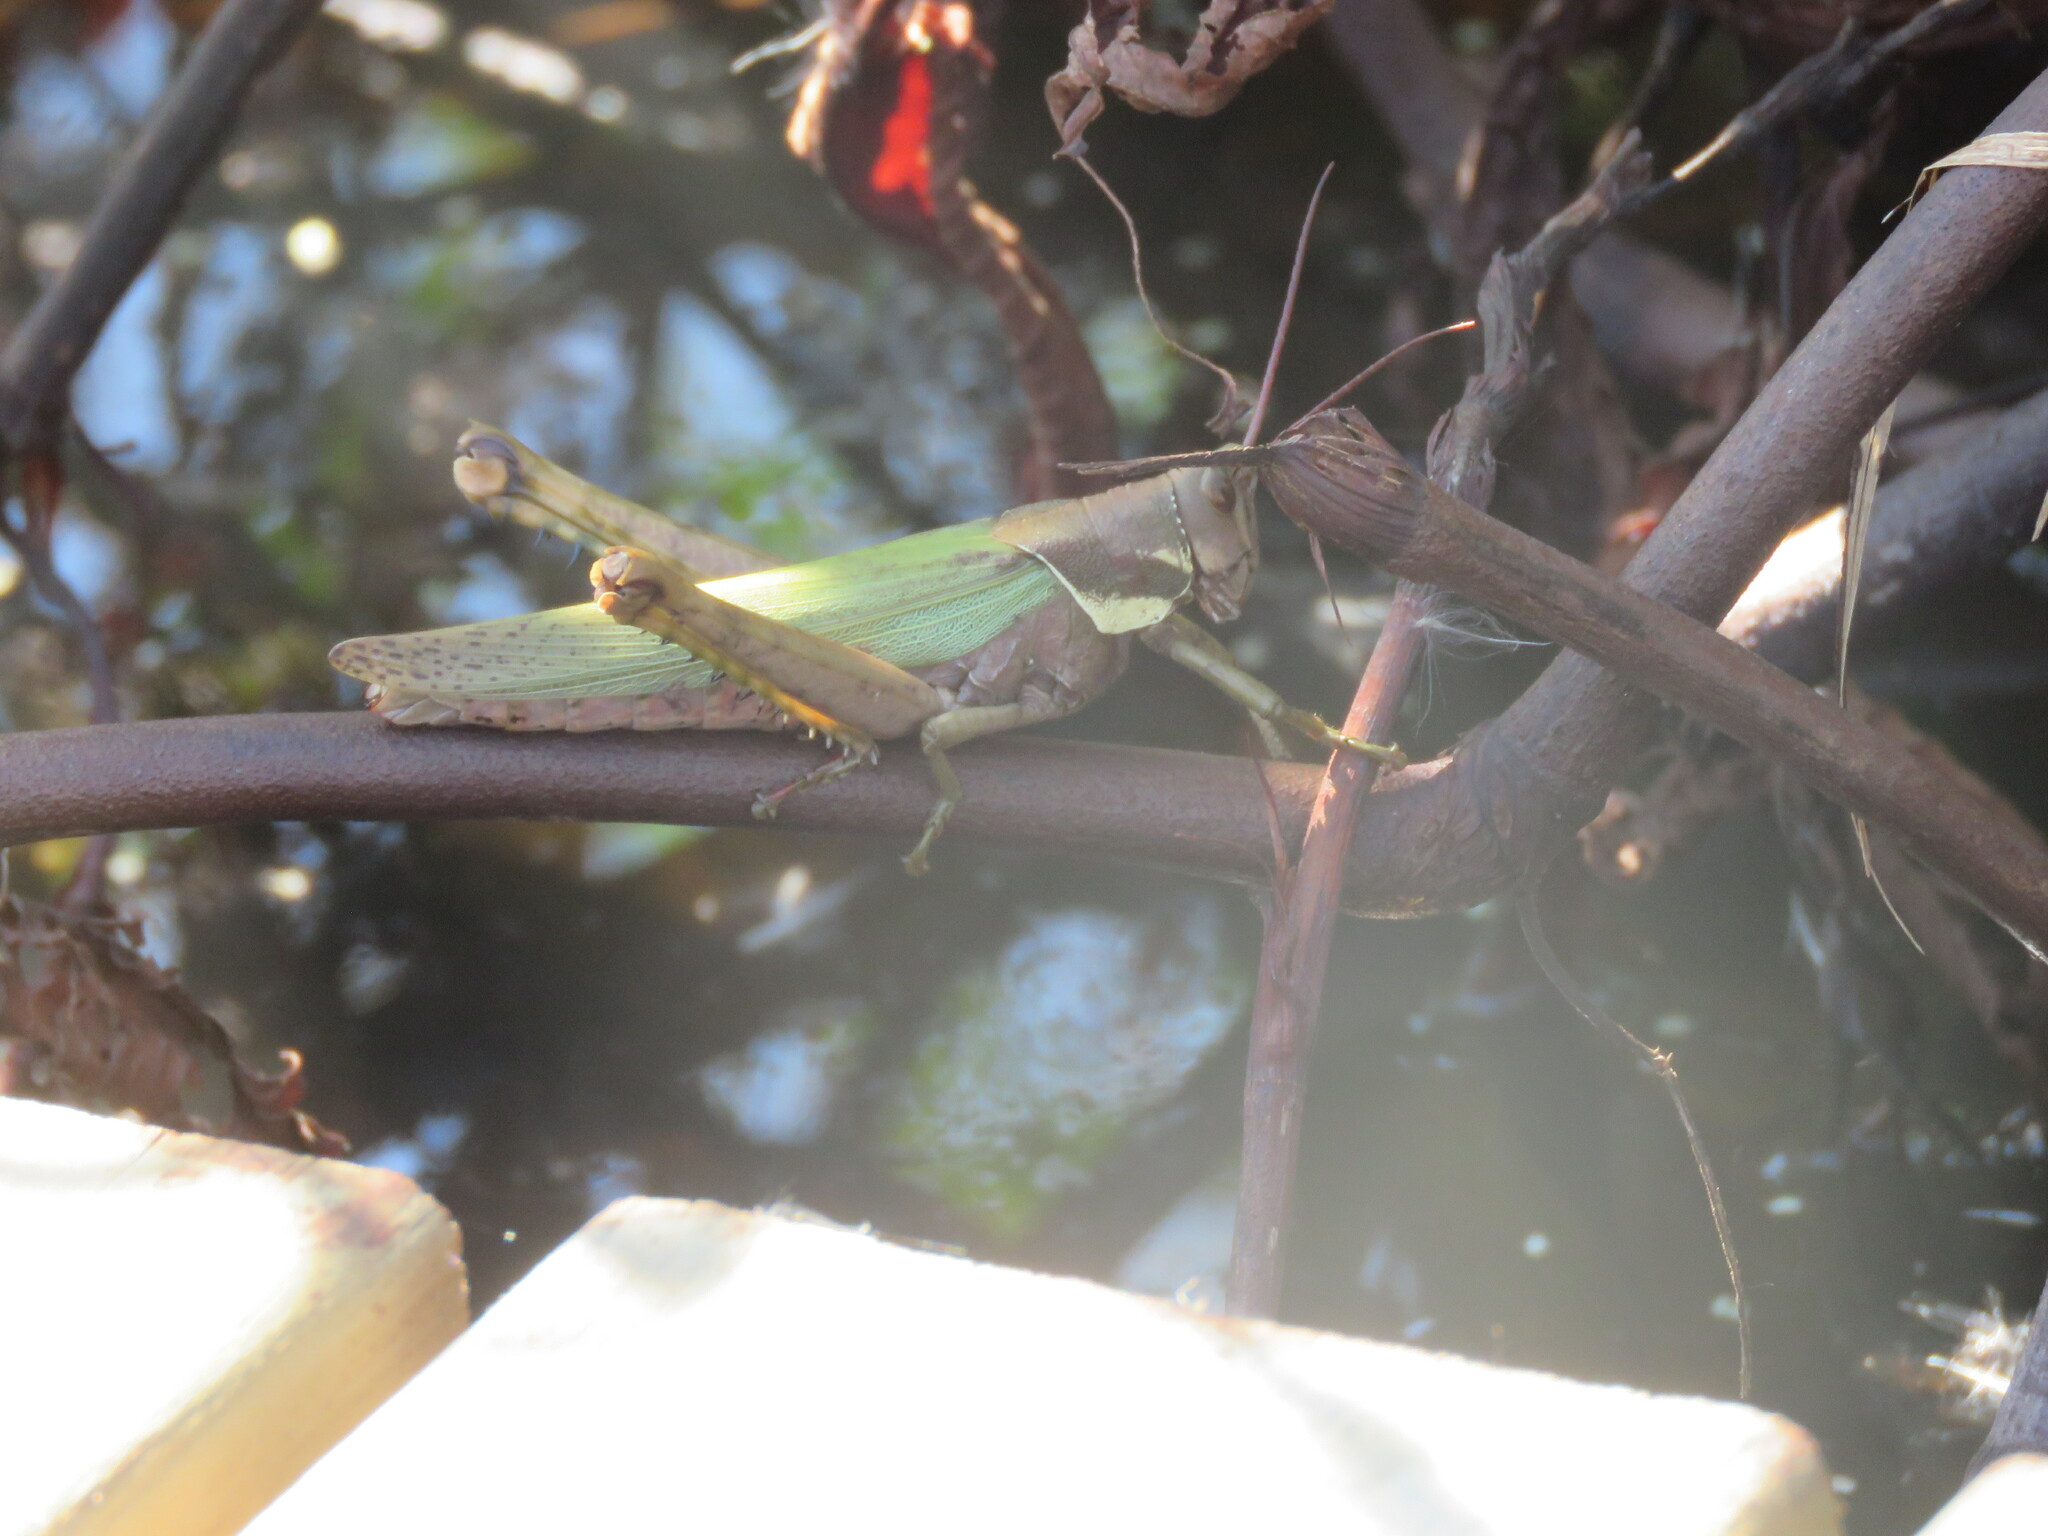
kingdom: Animalia
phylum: Arthropoda
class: Insecta
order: Orthoptera
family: Romaleidae
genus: Coryacris
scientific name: Coryacris angustipennis
